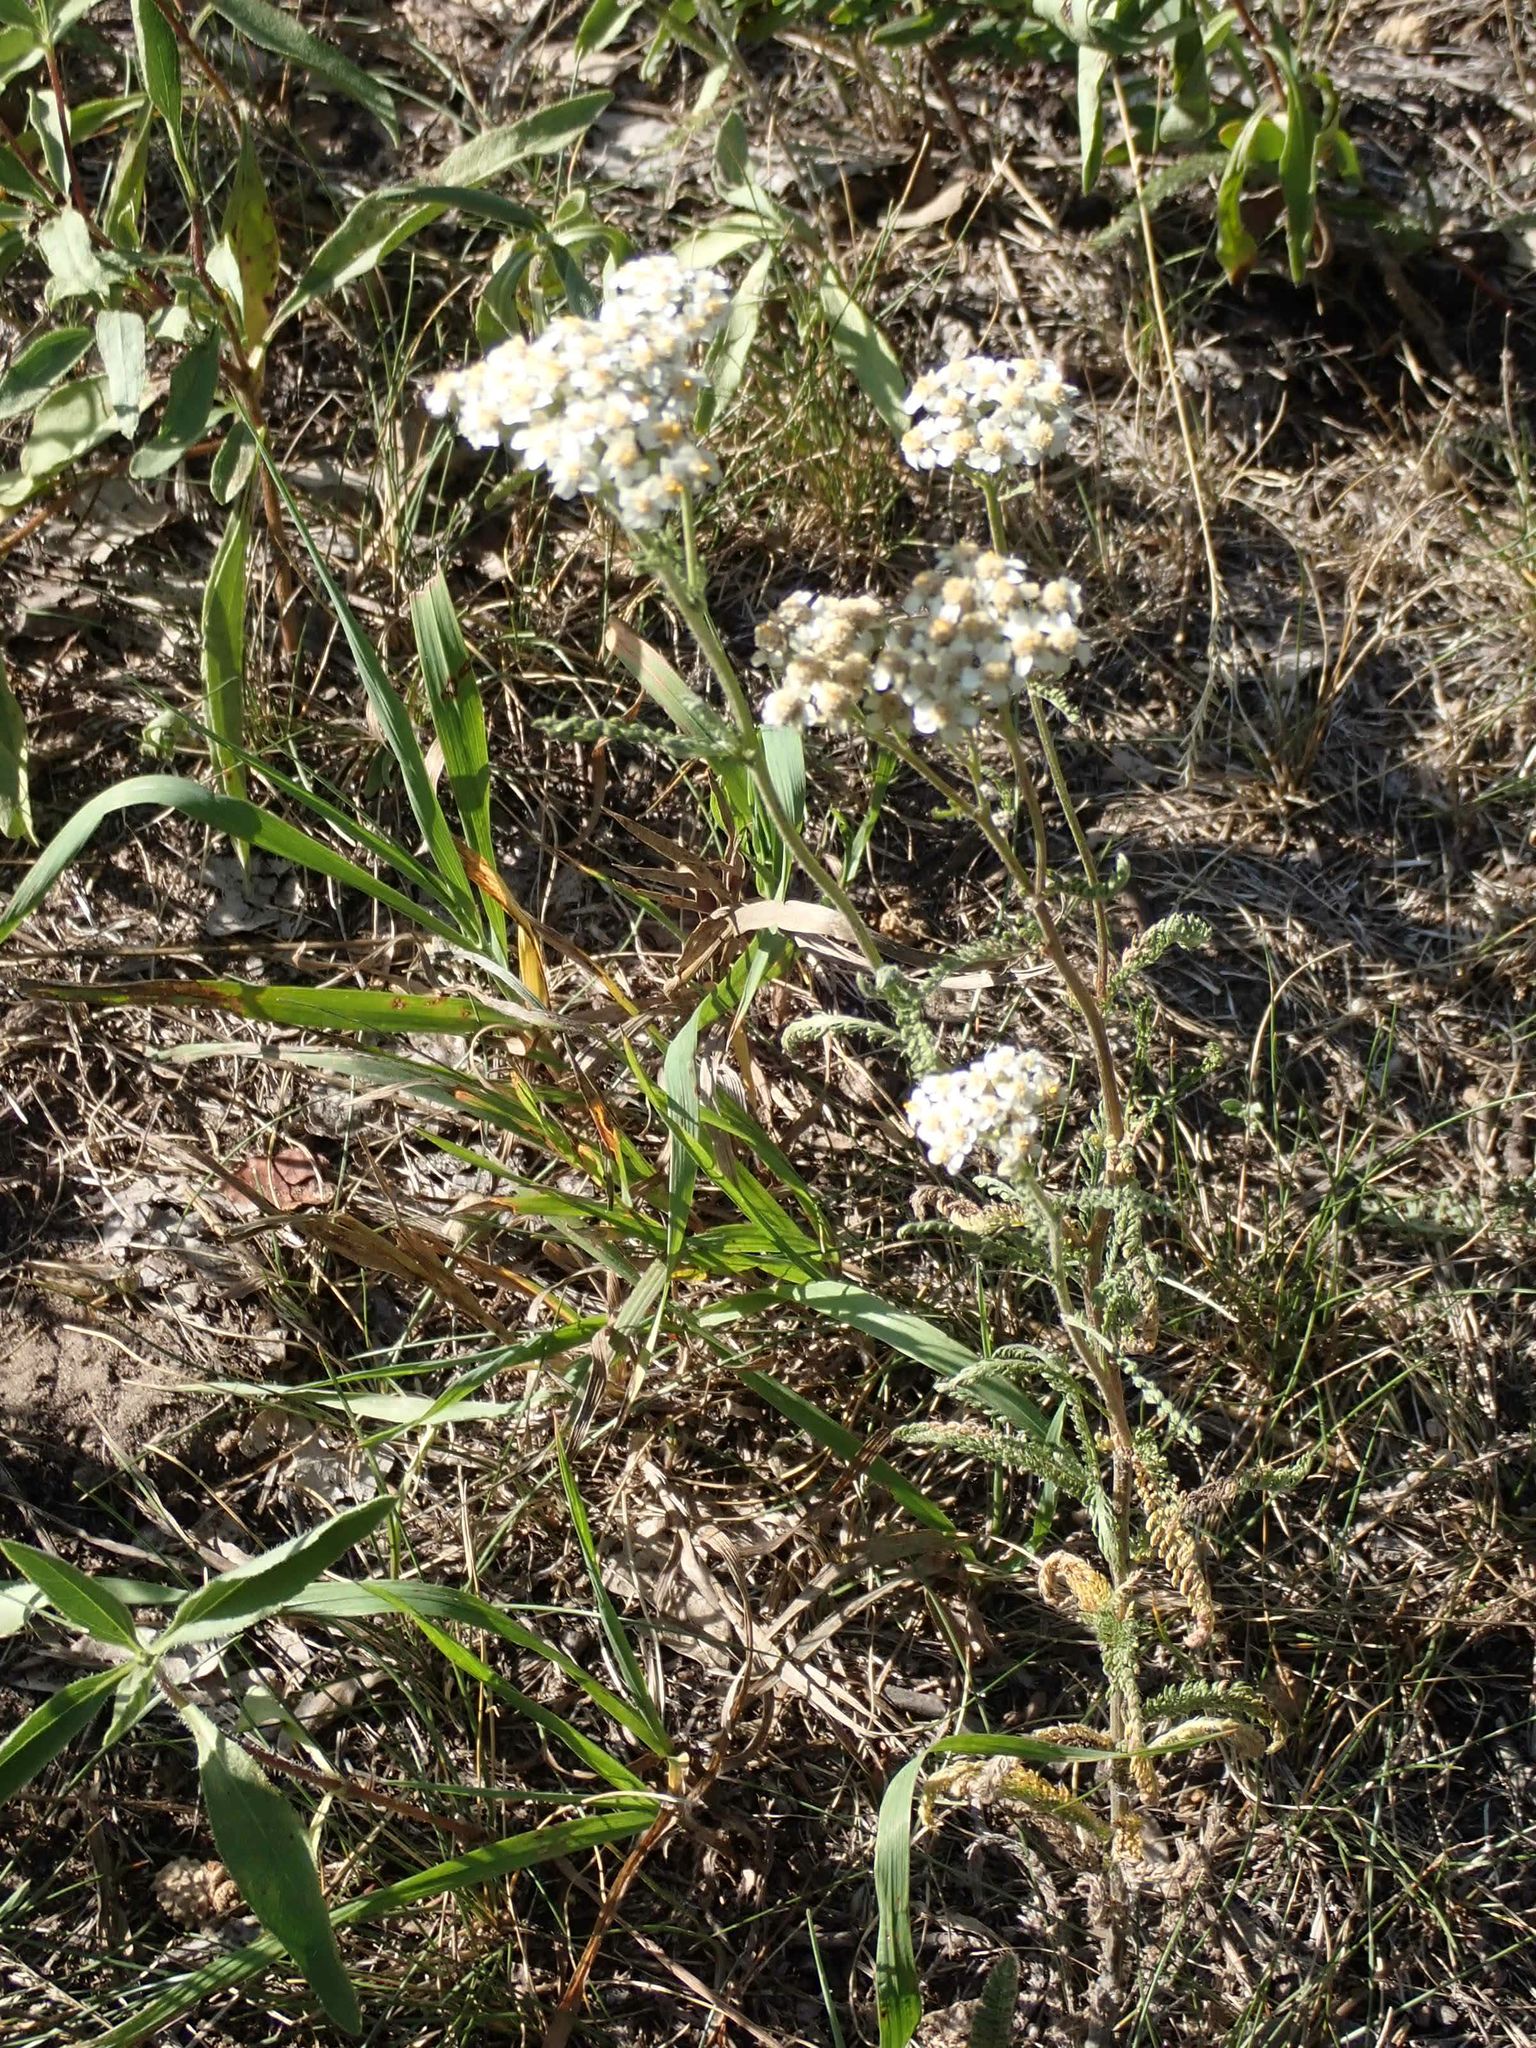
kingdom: Plantae
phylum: Tracheophyta
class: Magnoliopsida
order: Asterales
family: Asteraceae
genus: Achillea
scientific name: Achillea millefolium
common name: Yarrow
